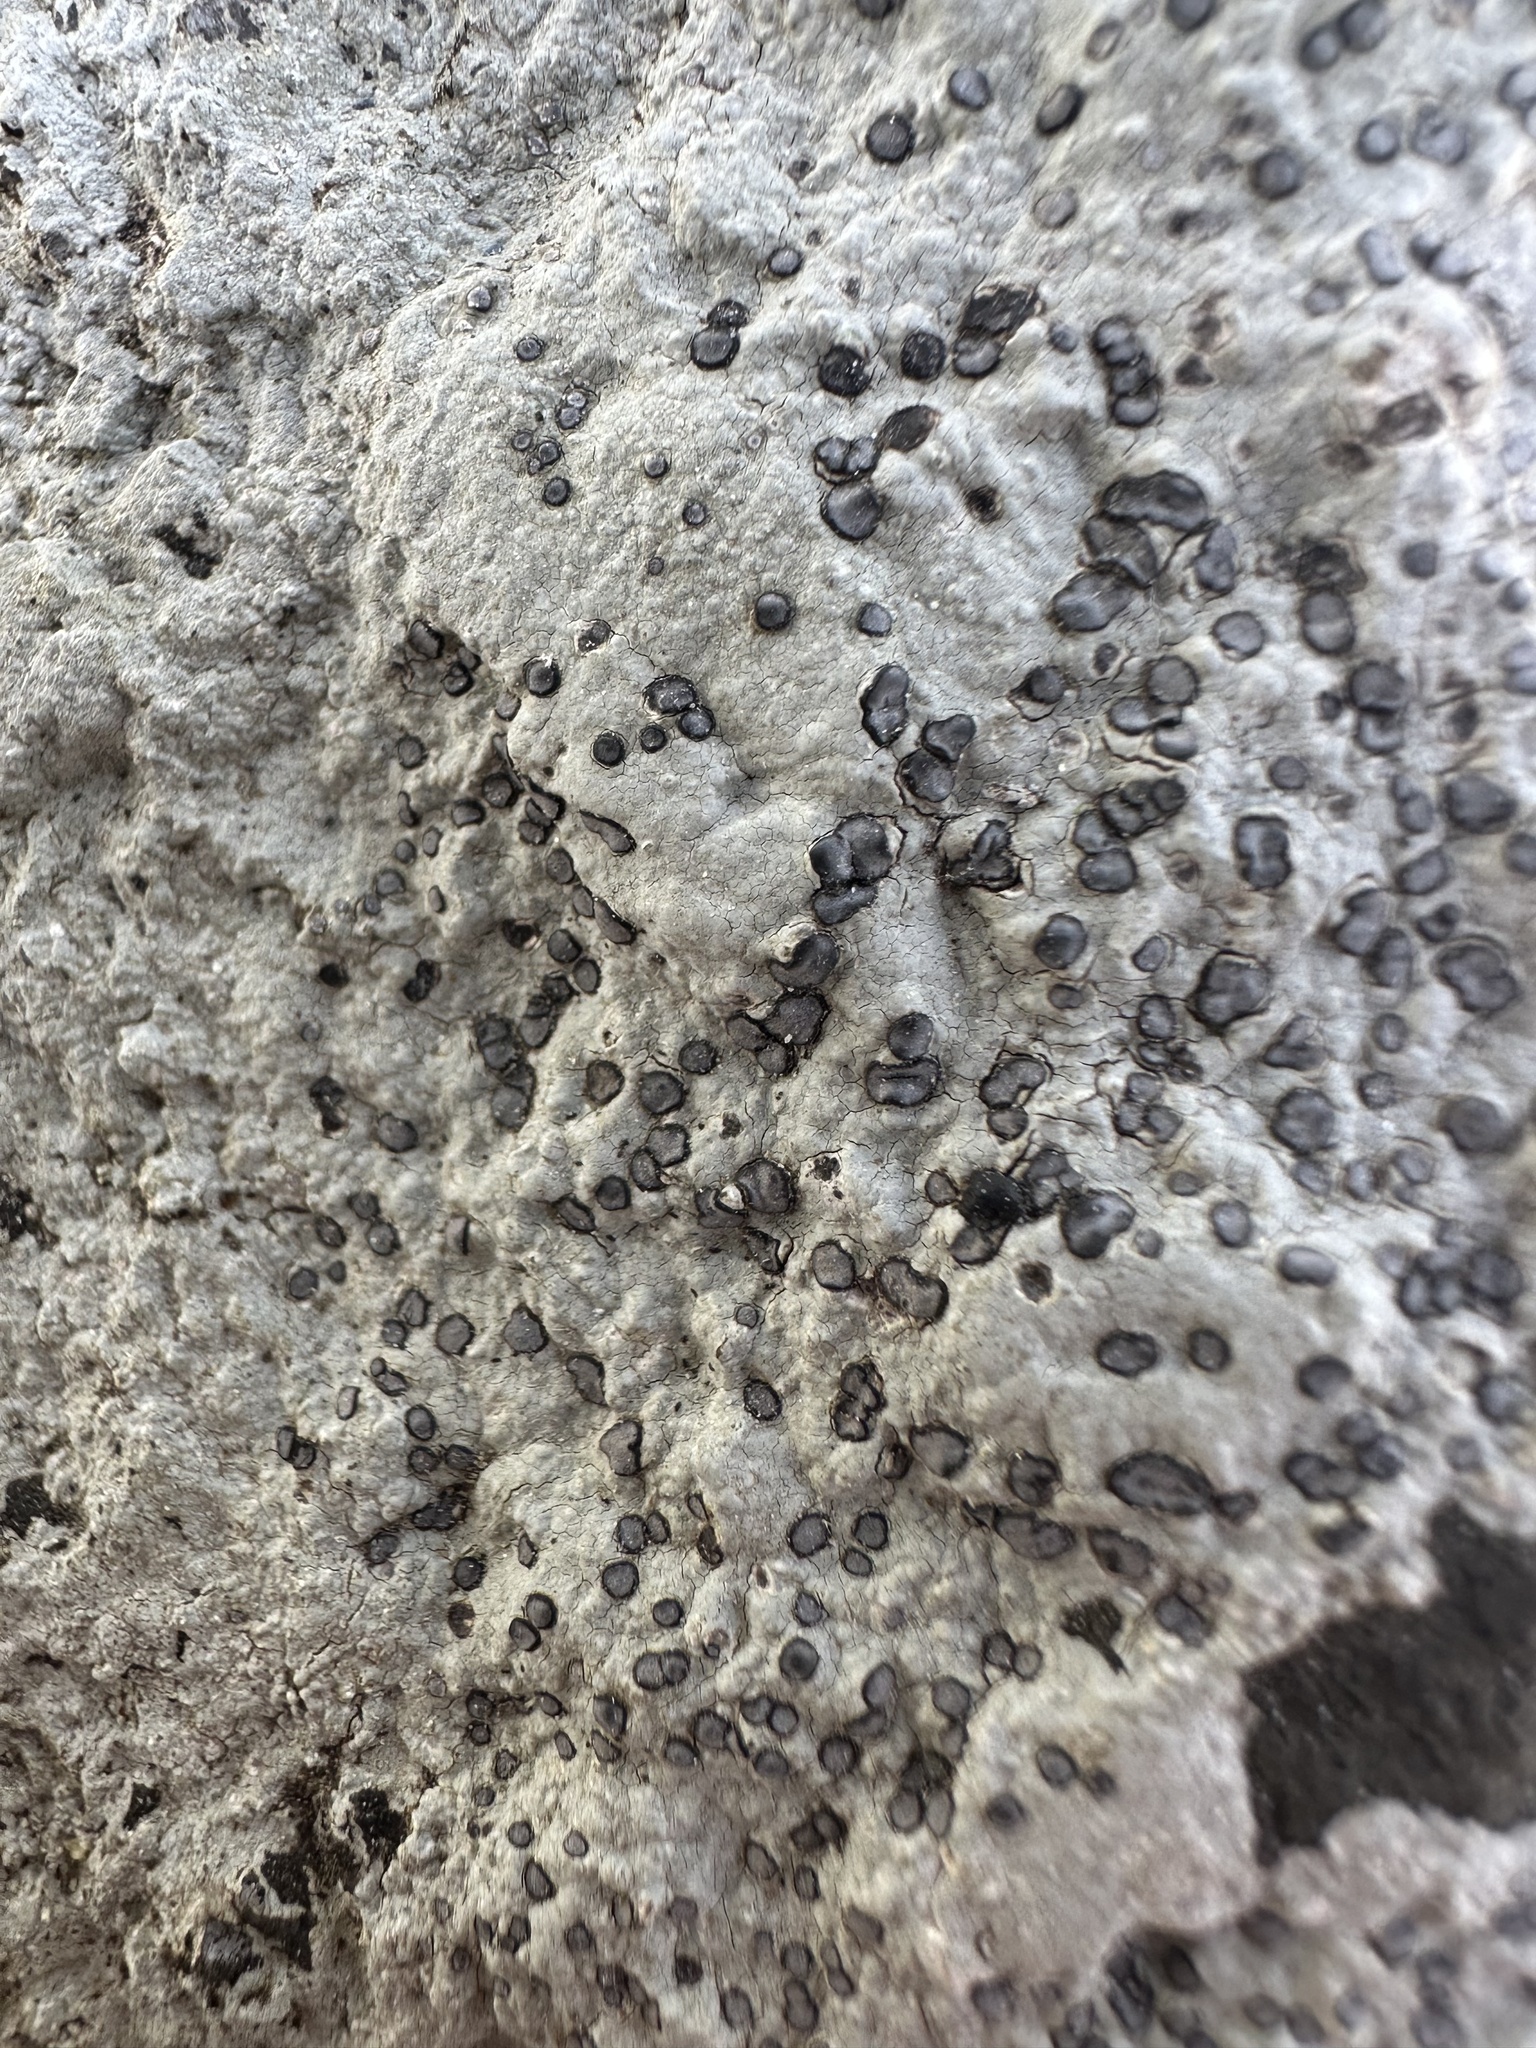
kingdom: Fungi
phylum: Ascomycota
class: Lecanoromycetes
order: Lecideales
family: Lecideaceae
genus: Porpidia
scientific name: Porpidia albocaerulescens
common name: Smokey-eyed boulder lichen
